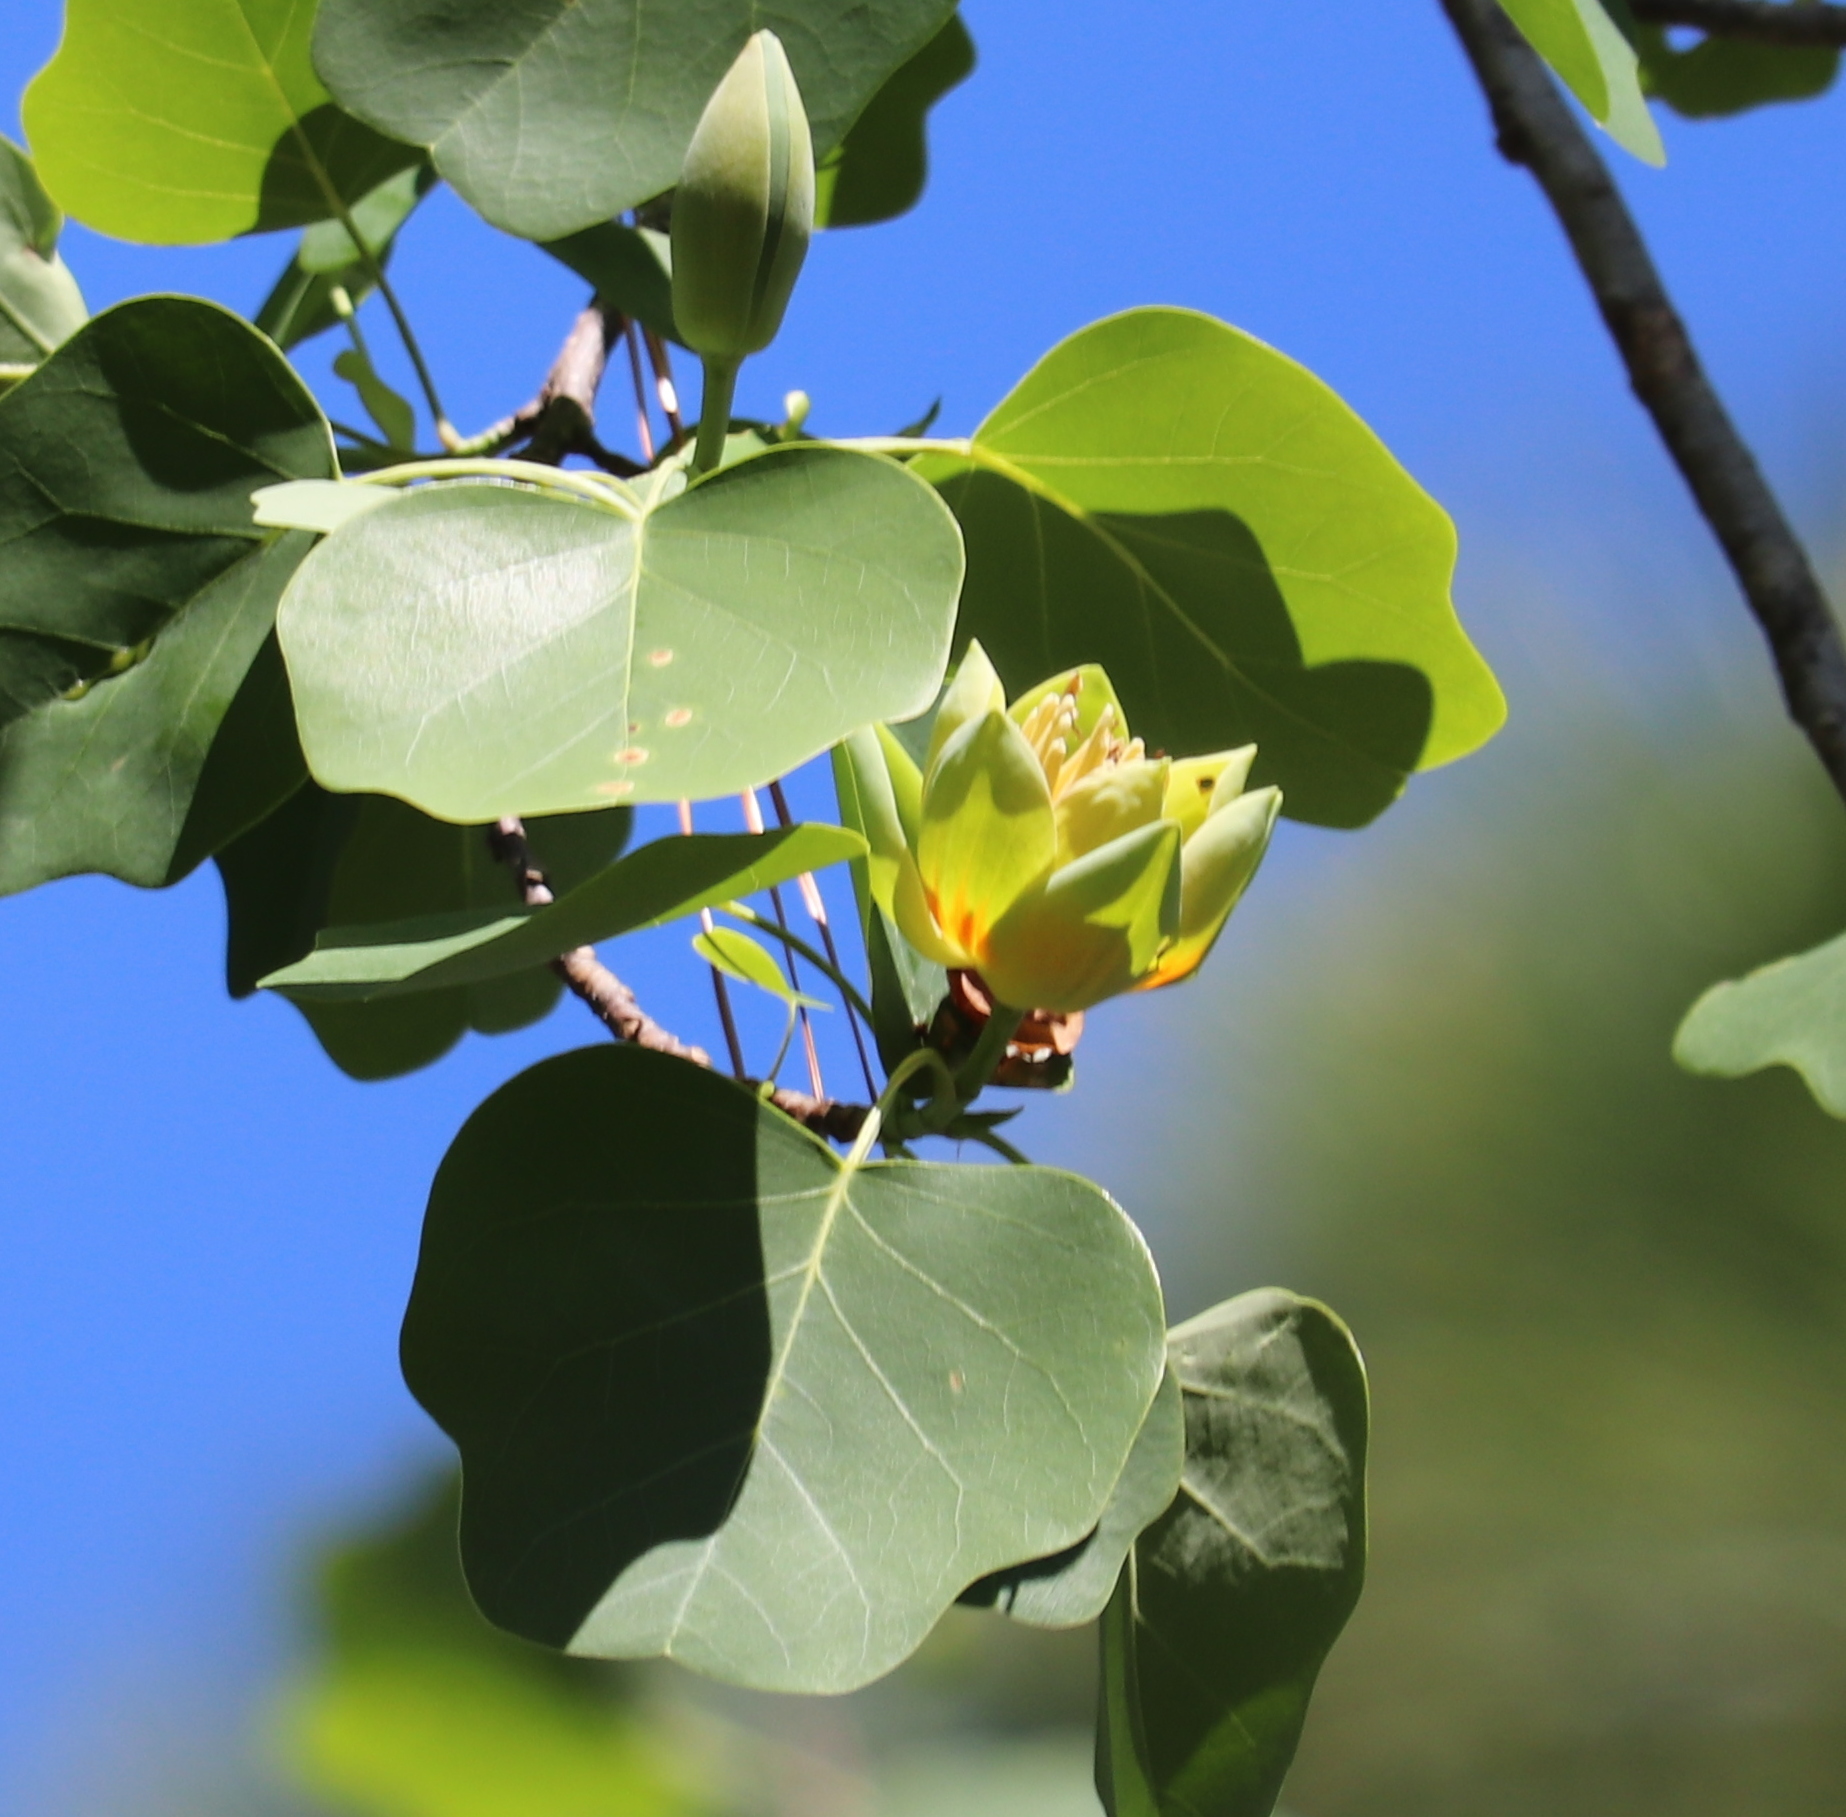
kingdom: Plantae
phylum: Tracheophyta
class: Magnoliopsida
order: Magnoliales
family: Magnoliaceae
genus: Liriodendron
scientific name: Liriodendron tulipifera
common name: Tulip tree
